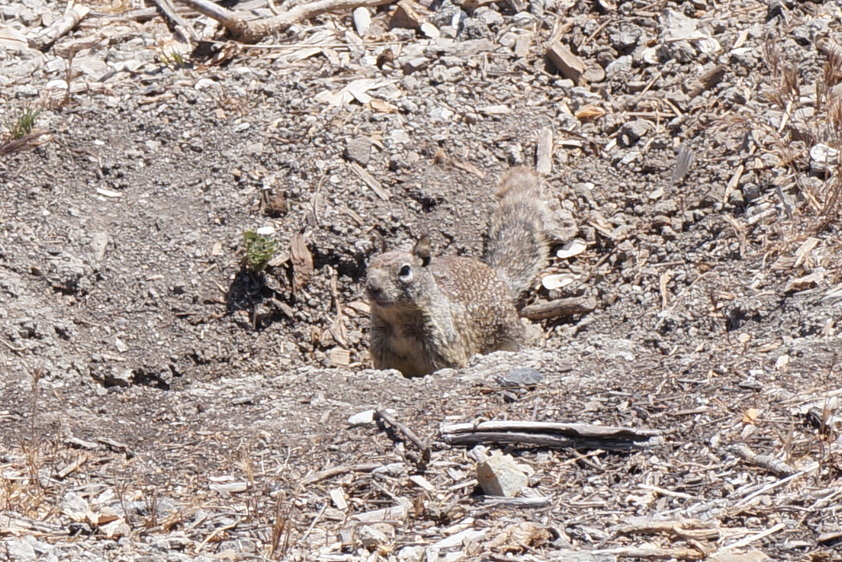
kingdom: Animalia
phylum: Chordata
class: Mammalia
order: Rodentia
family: Sciuridae
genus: Otospermophilus
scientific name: Otospermophilus beecheyi
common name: California ground squirrel
